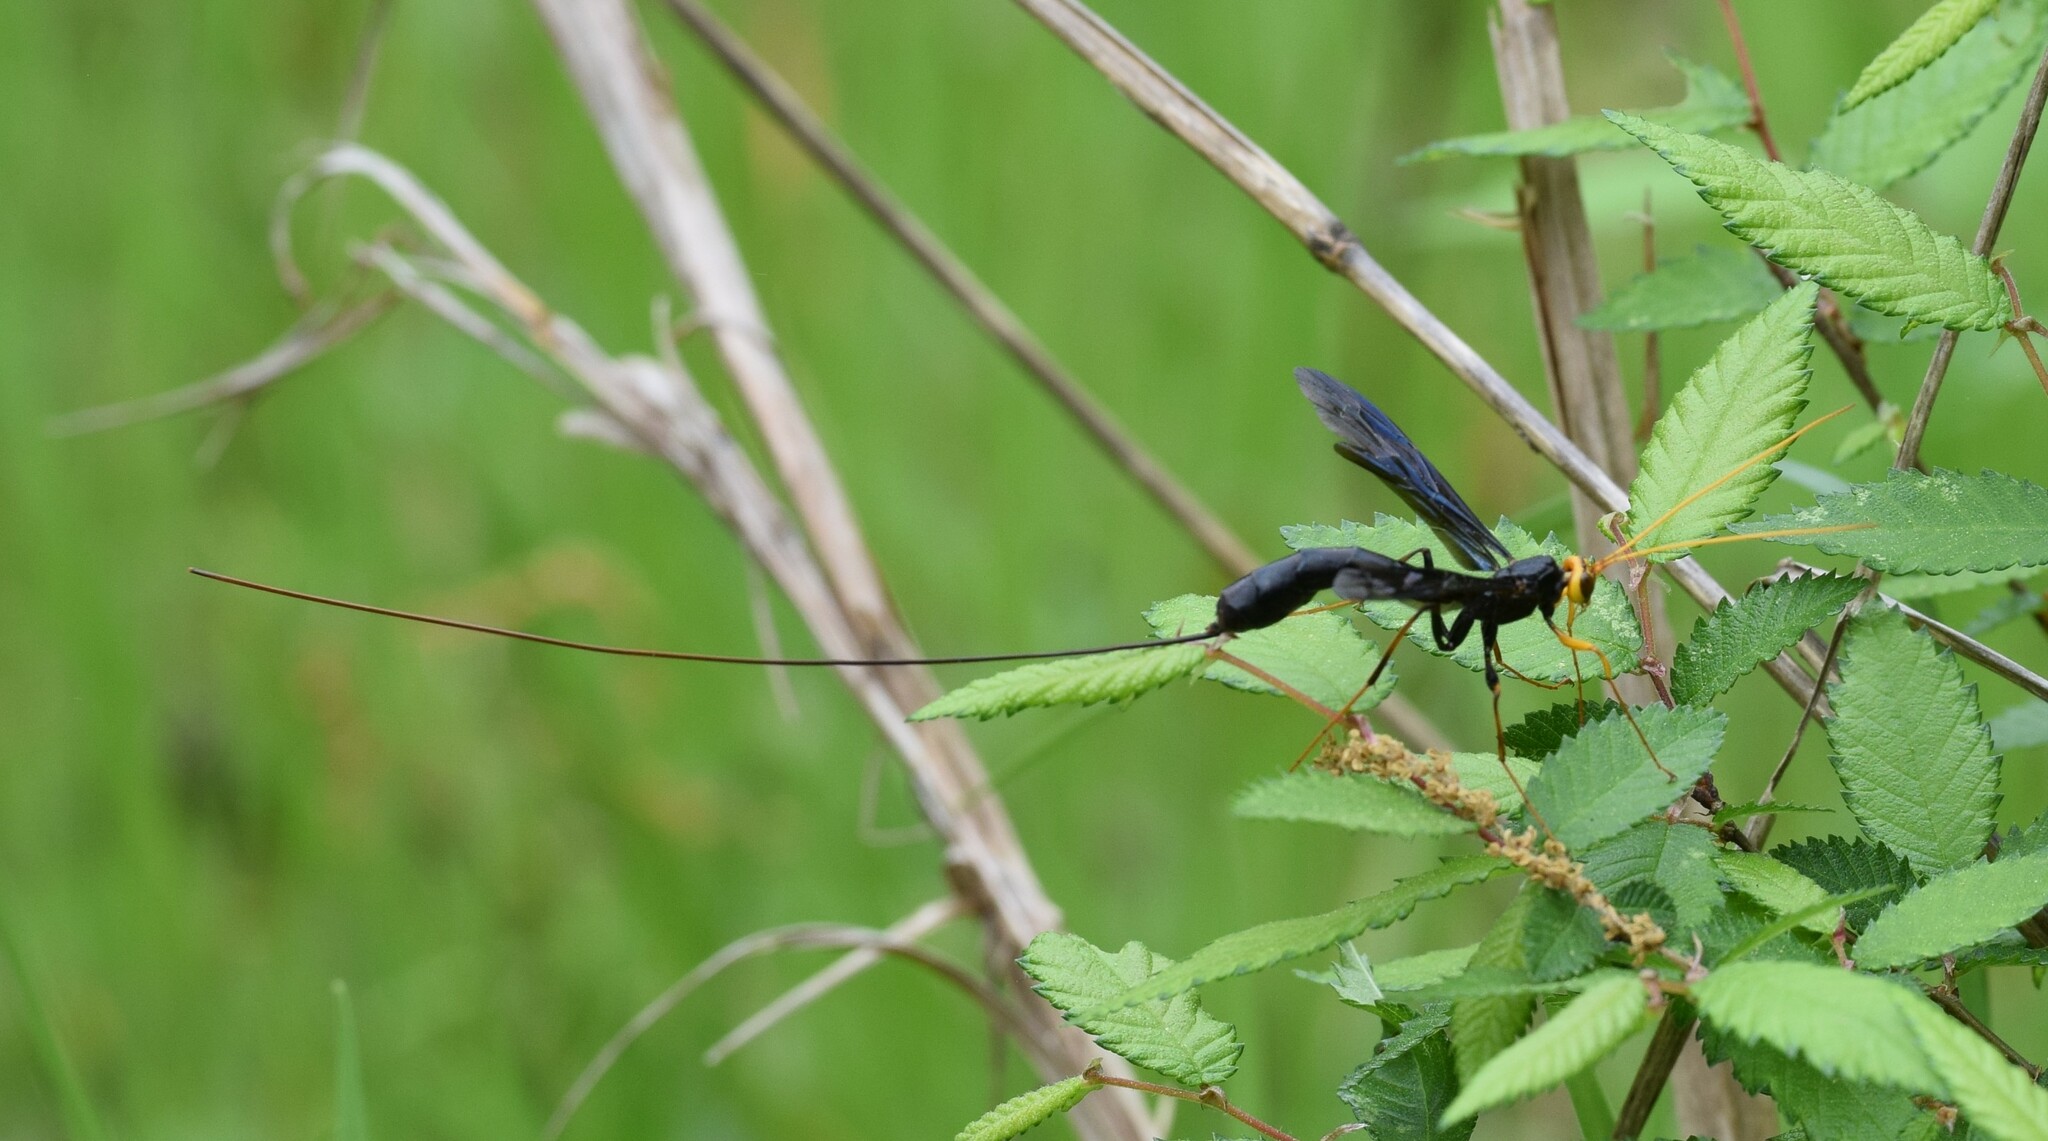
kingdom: Animalia
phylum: Arthropoda
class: Insecta
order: Hymenoptera
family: Ichneumonidae
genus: Megarhyssa
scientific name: Megarhyssa atrata
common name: Black giant ichneumonid wasp
